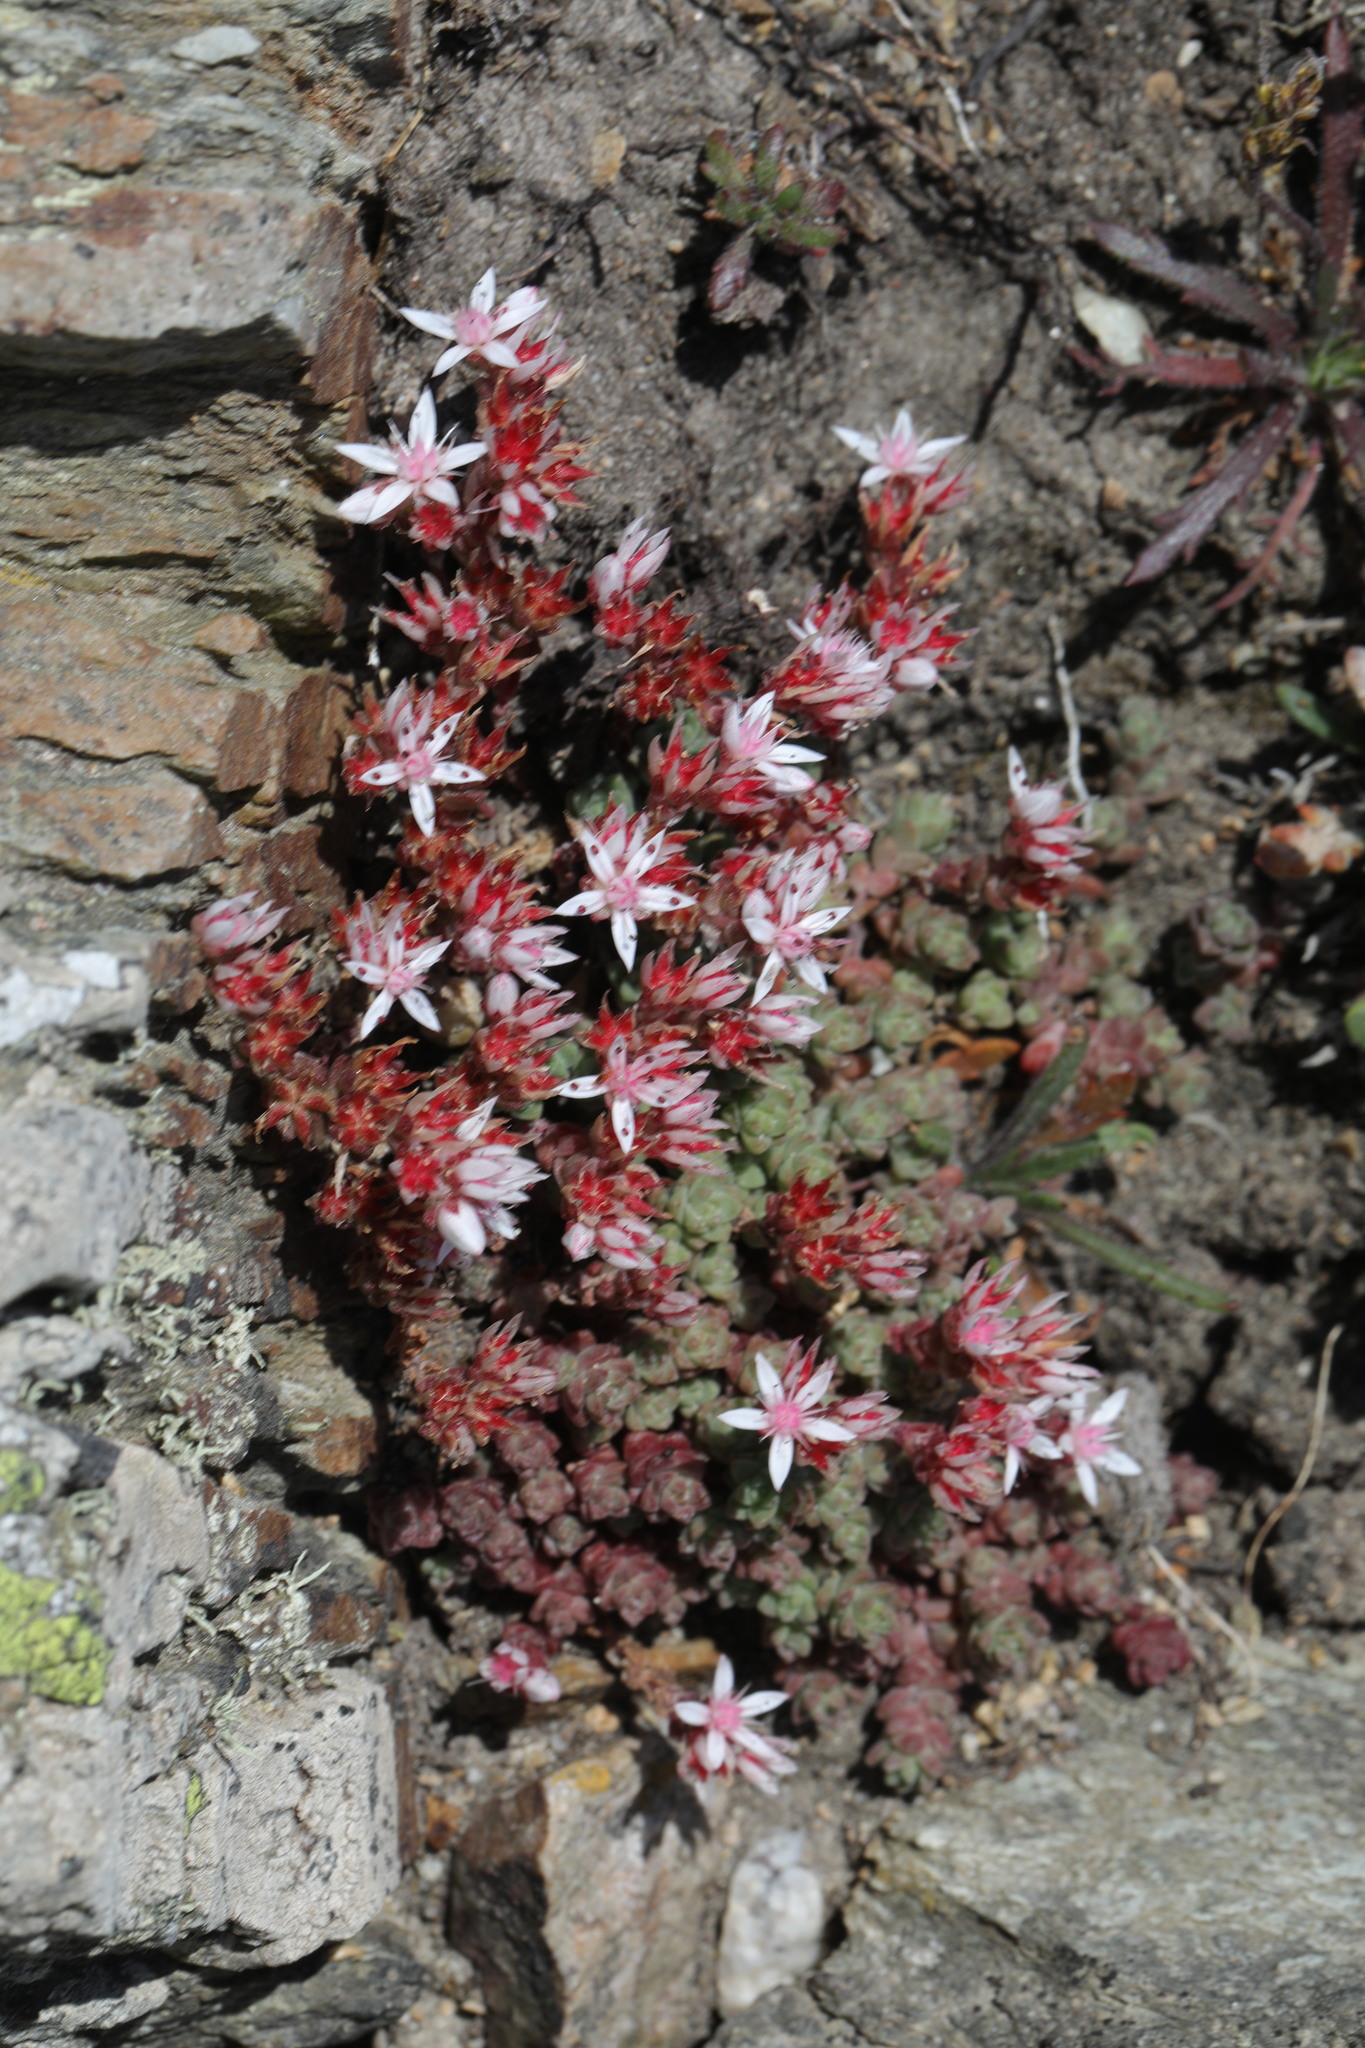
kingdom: Plantae
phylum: Tracheophyta
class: Magnoliopsida
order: Saxifragales
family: Crassulaceae
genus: Sedum
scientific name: Sedum anglicum
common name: English stonecrop
